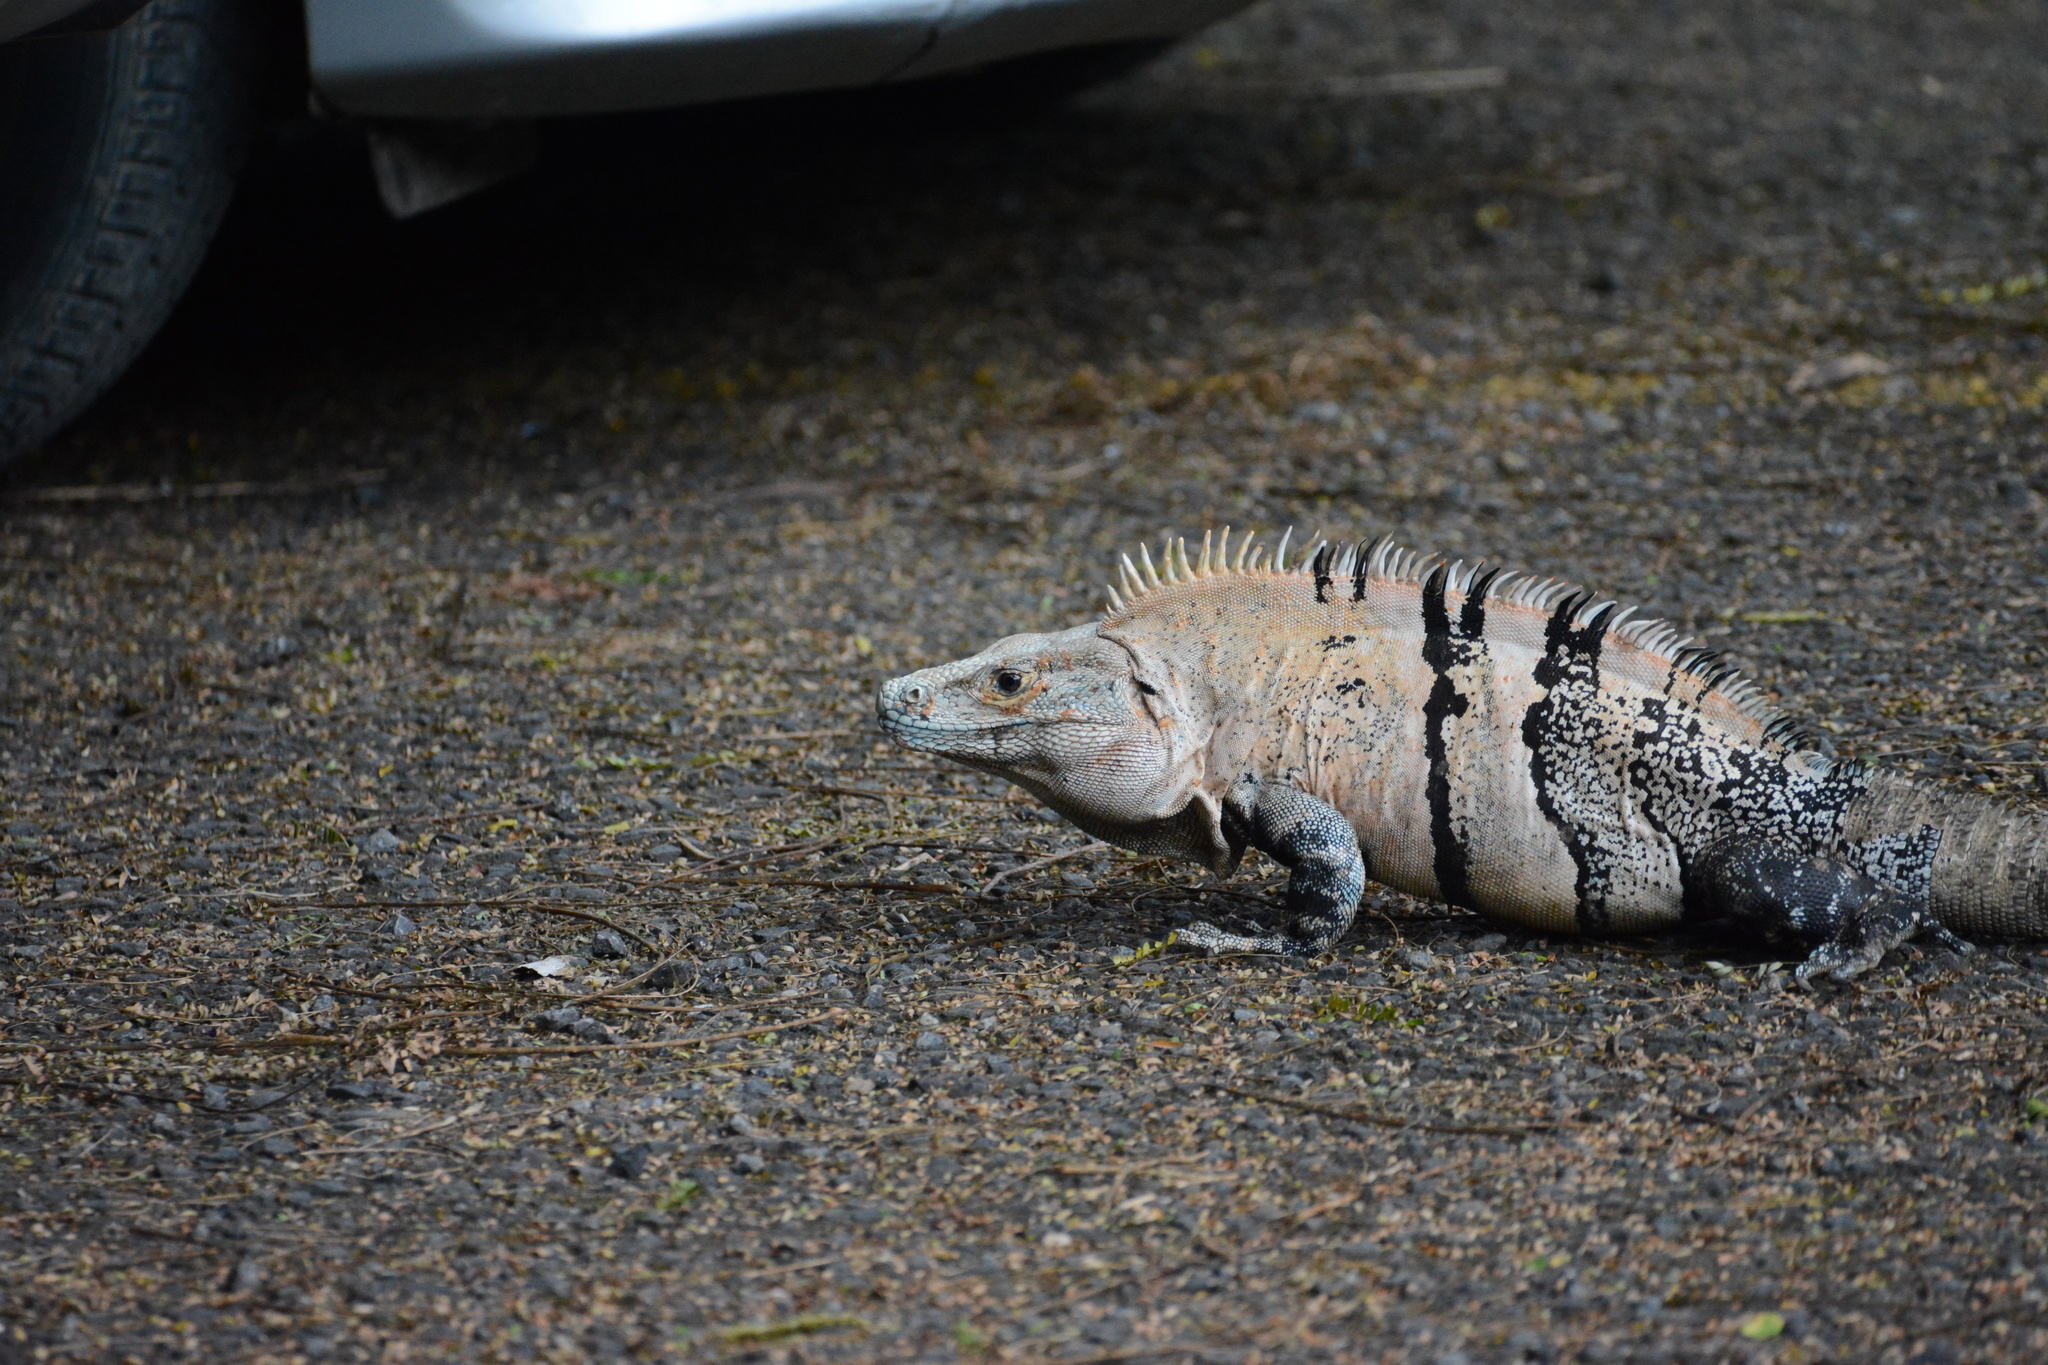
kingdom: Animalia
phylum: Chordata
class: Squamata
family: Iguanidae
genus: Ctenosaura
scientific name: Ctenosaura similis
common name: Black spiny-tailed iguana
